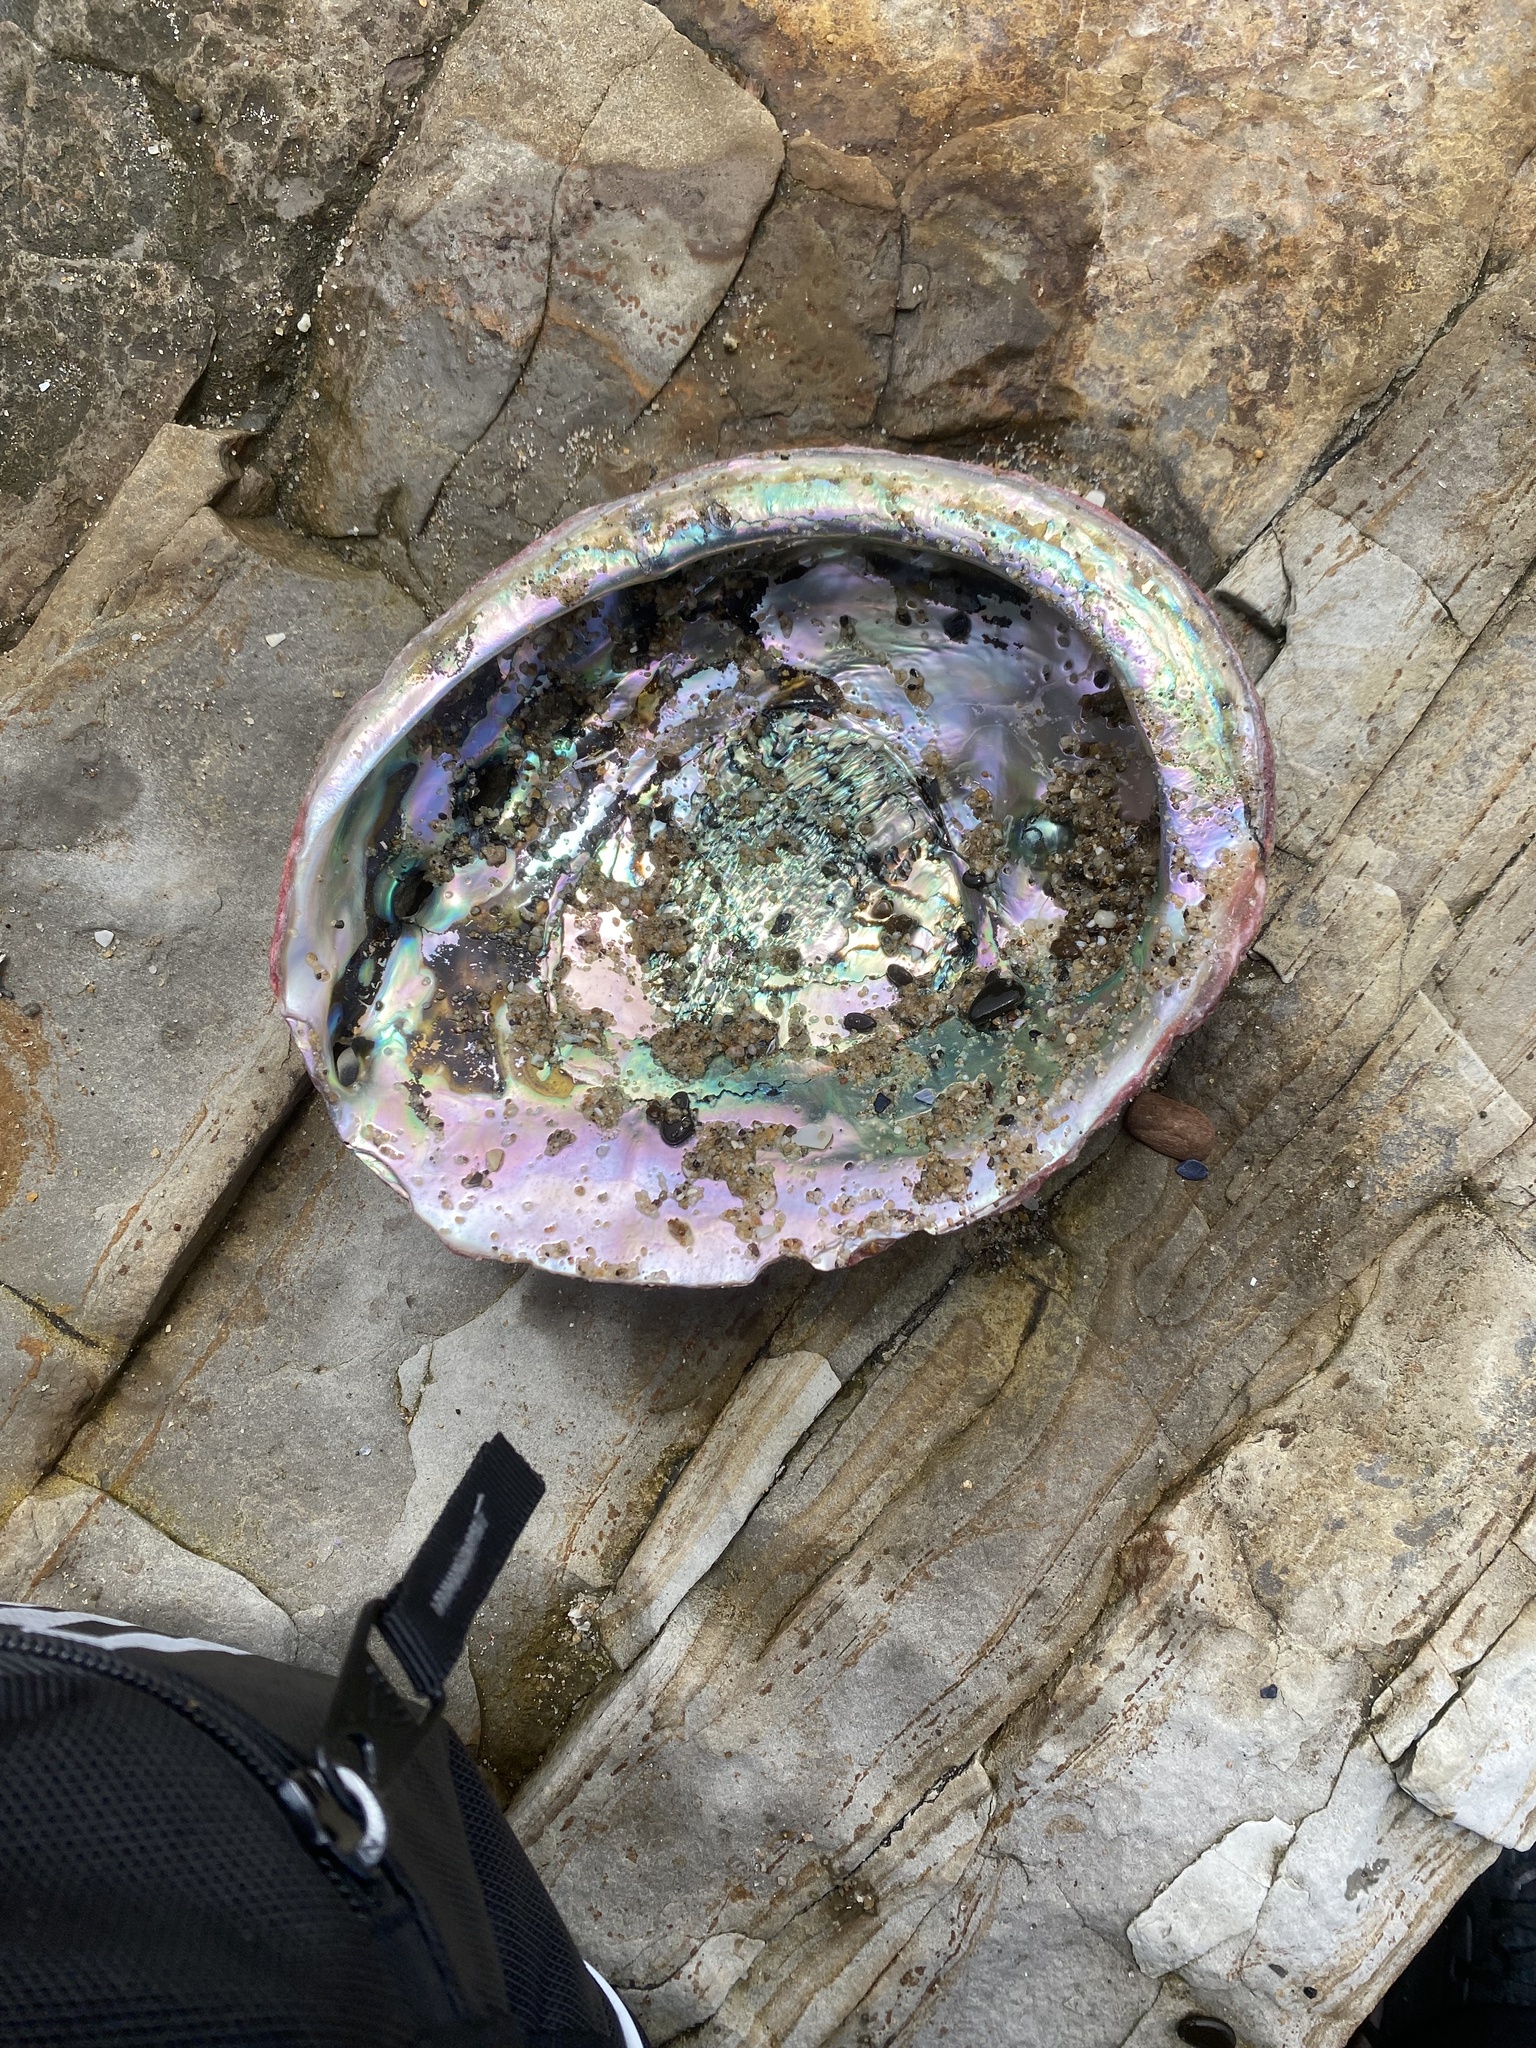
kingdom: Animalia
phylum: Mollusca
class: Gastropoda
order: Lepetellida
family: Haliotidae
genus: Haliotis
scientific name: Haliotis rufescens
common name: Red abalone
